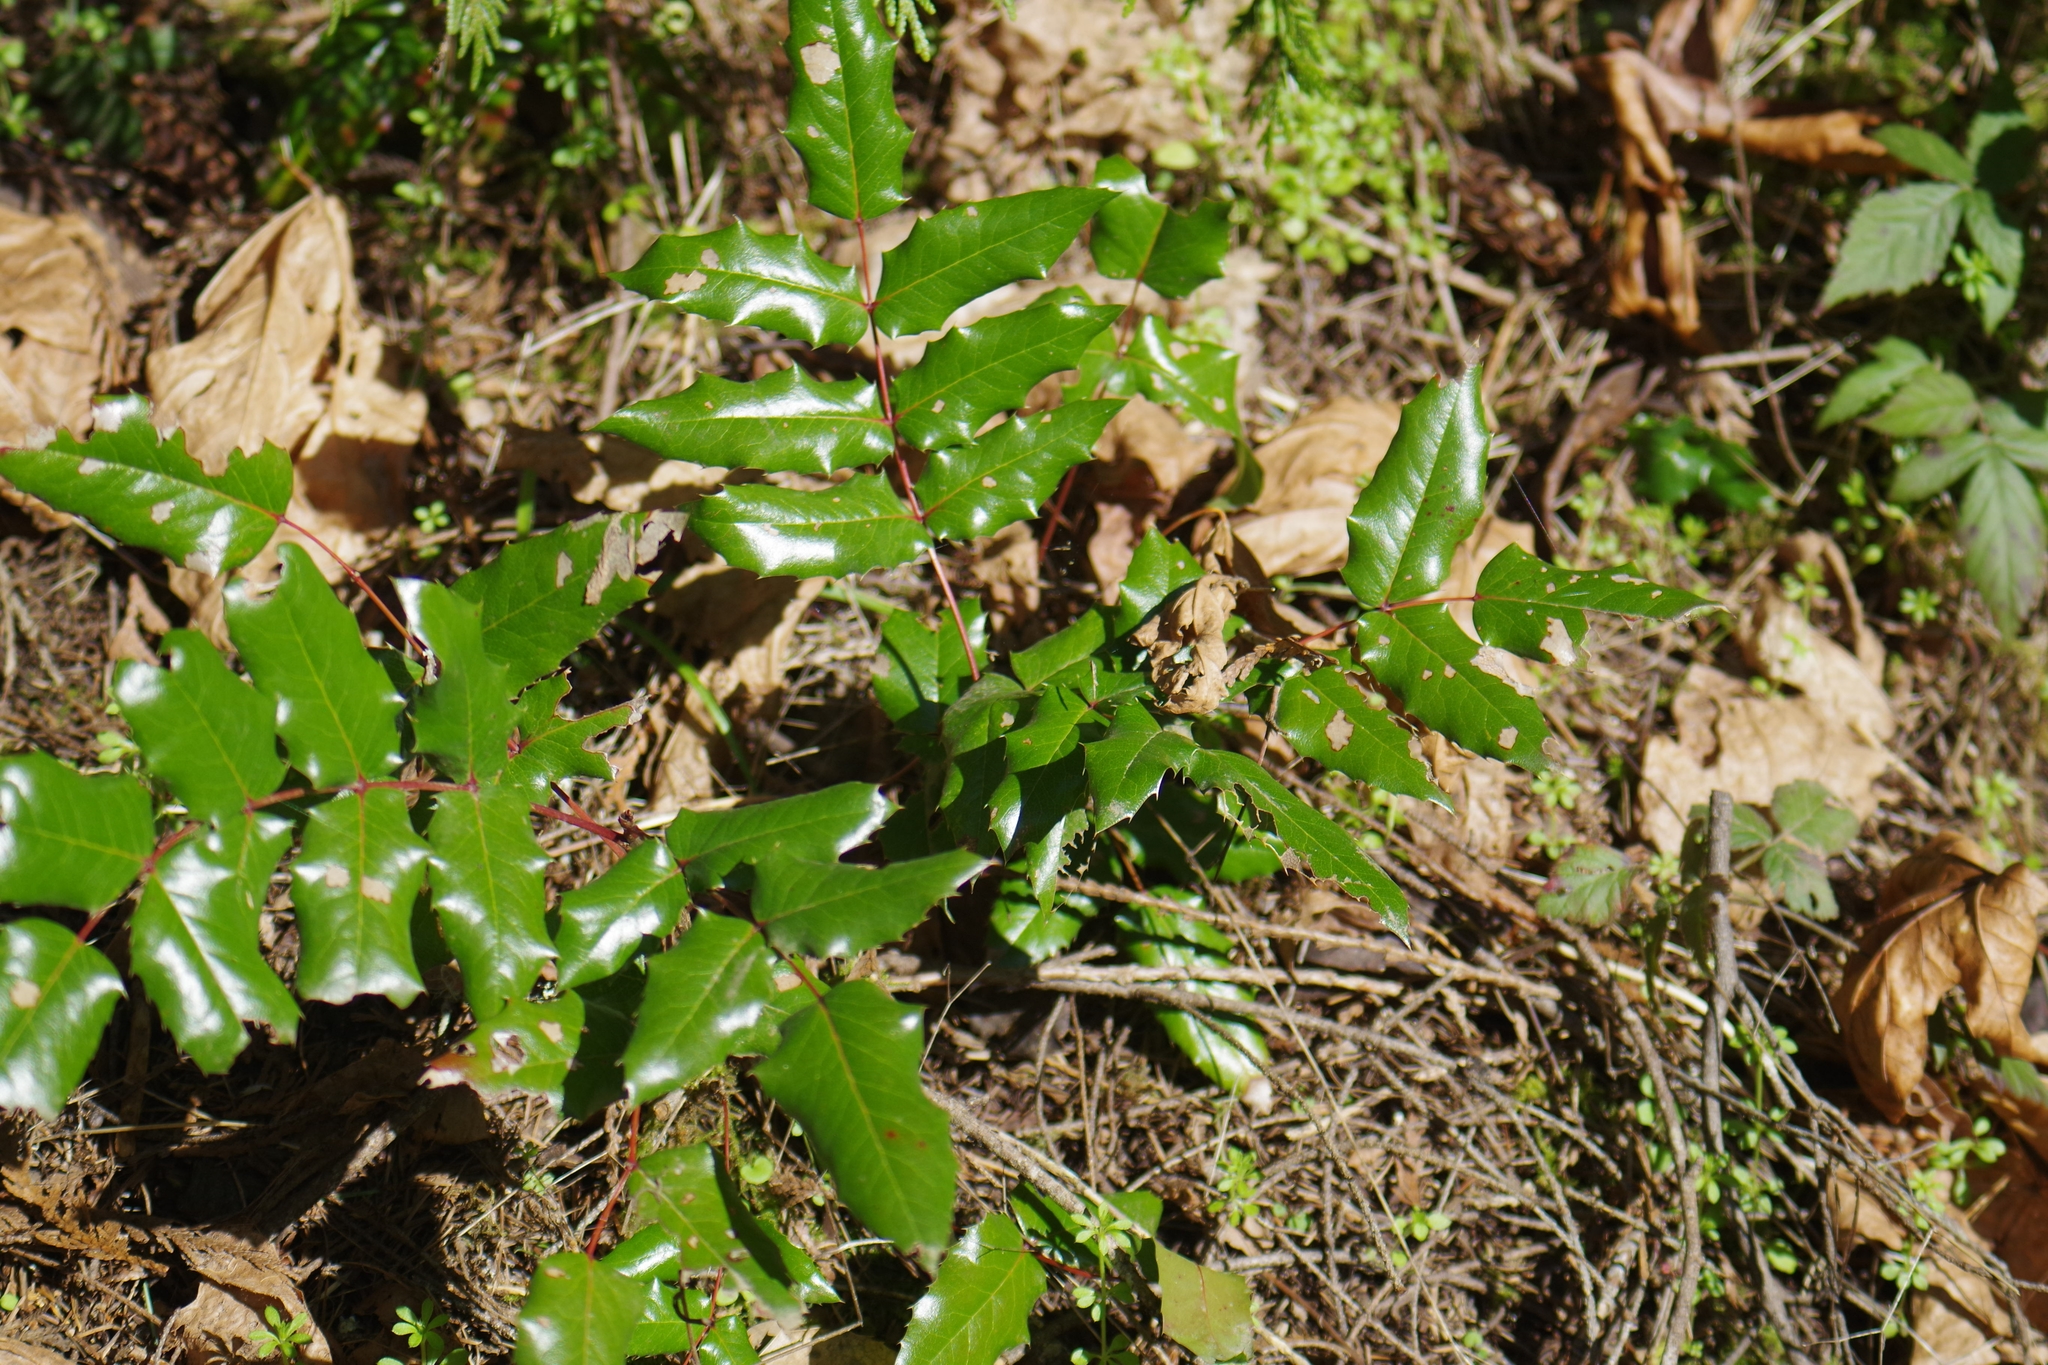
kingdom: Plantae
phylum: Tracheophyta
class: Magnoliopsida
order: Ranunculales
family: Berberidaceae
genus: Mahonia
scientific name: Mahonia aquifolium
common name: Oregon-grape
